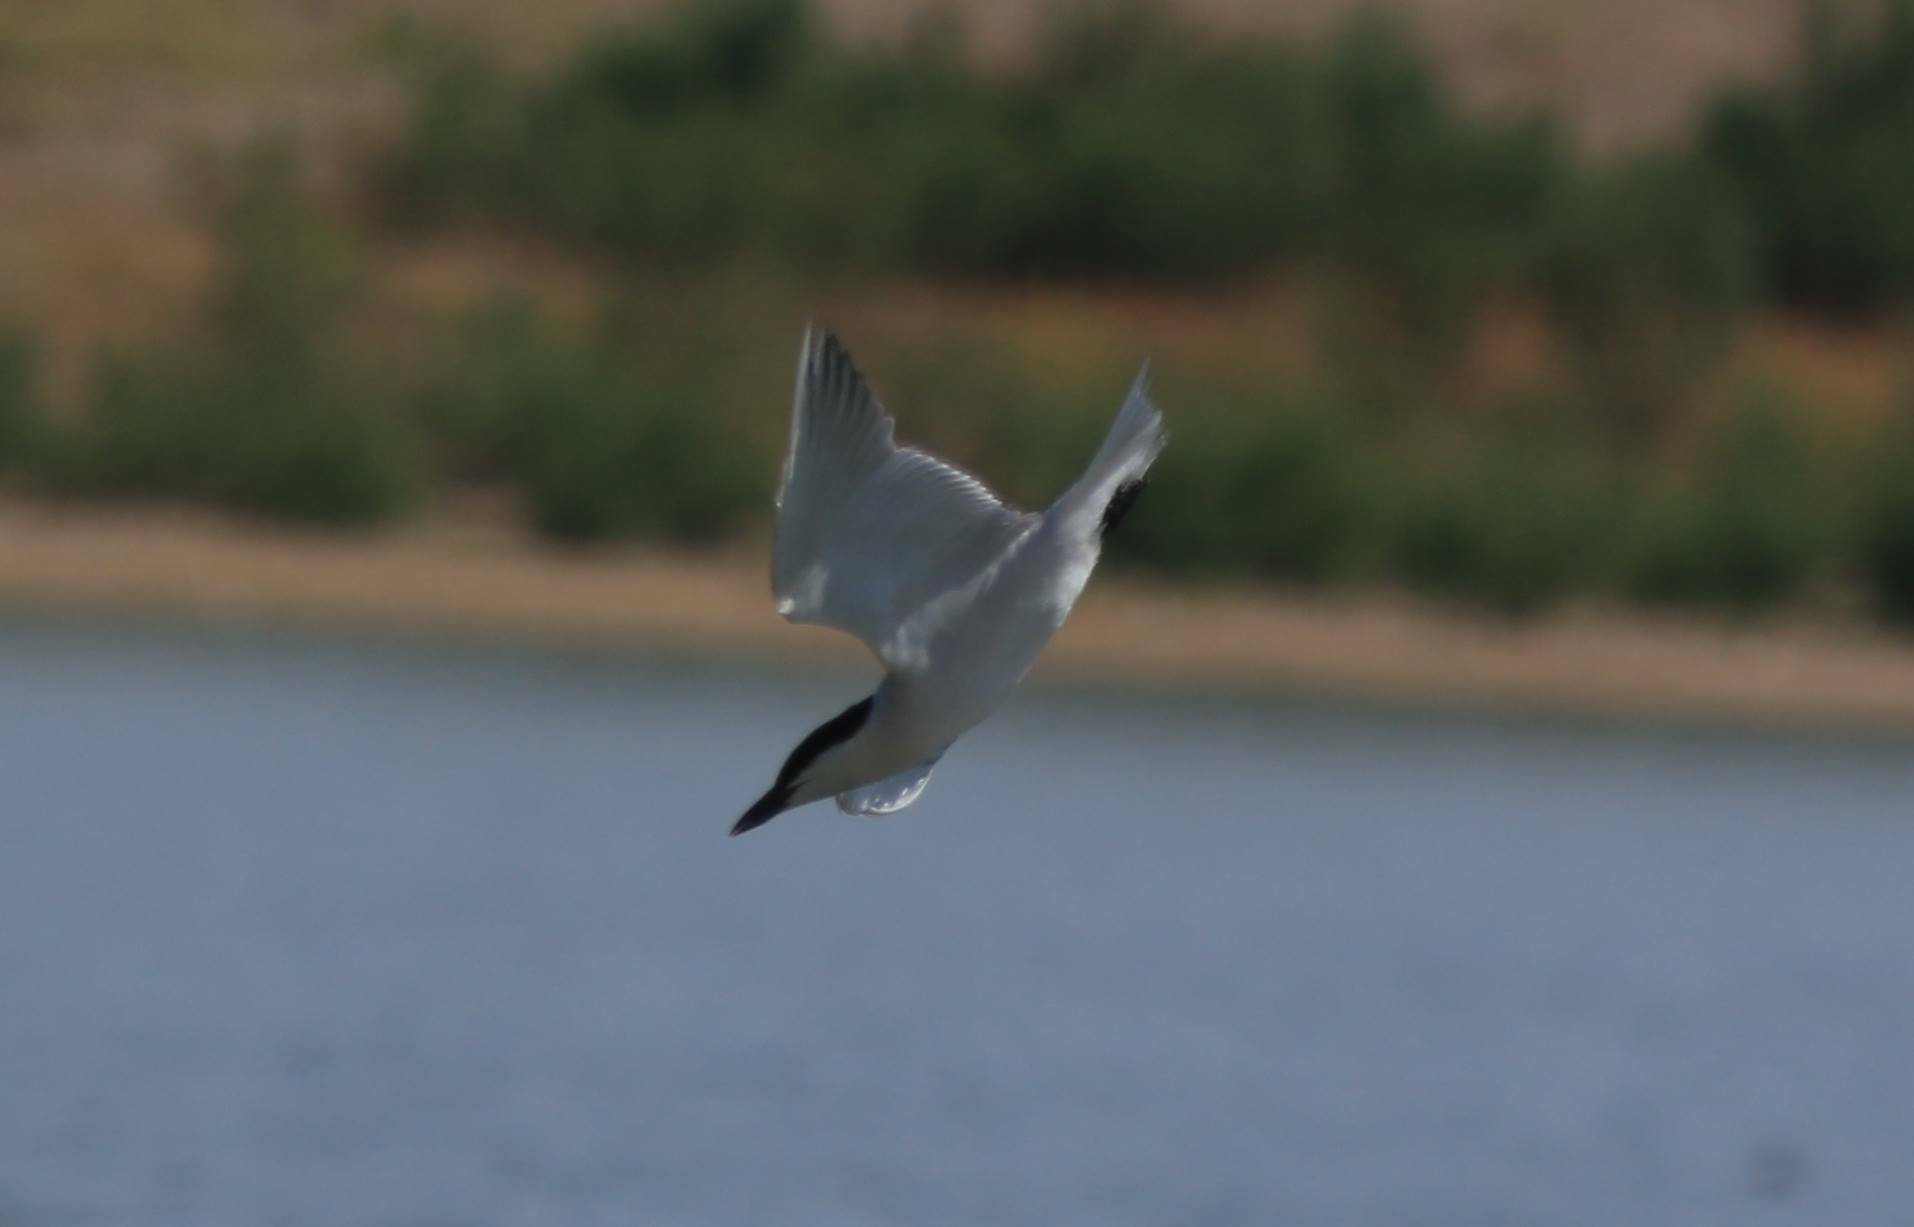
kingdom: Animalia
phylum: Chordata
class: Aves
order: Charadriiformes
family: Laridae
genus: Gelochelidon
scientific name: Gelochelidon nilotica
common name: Gull-billed tern
